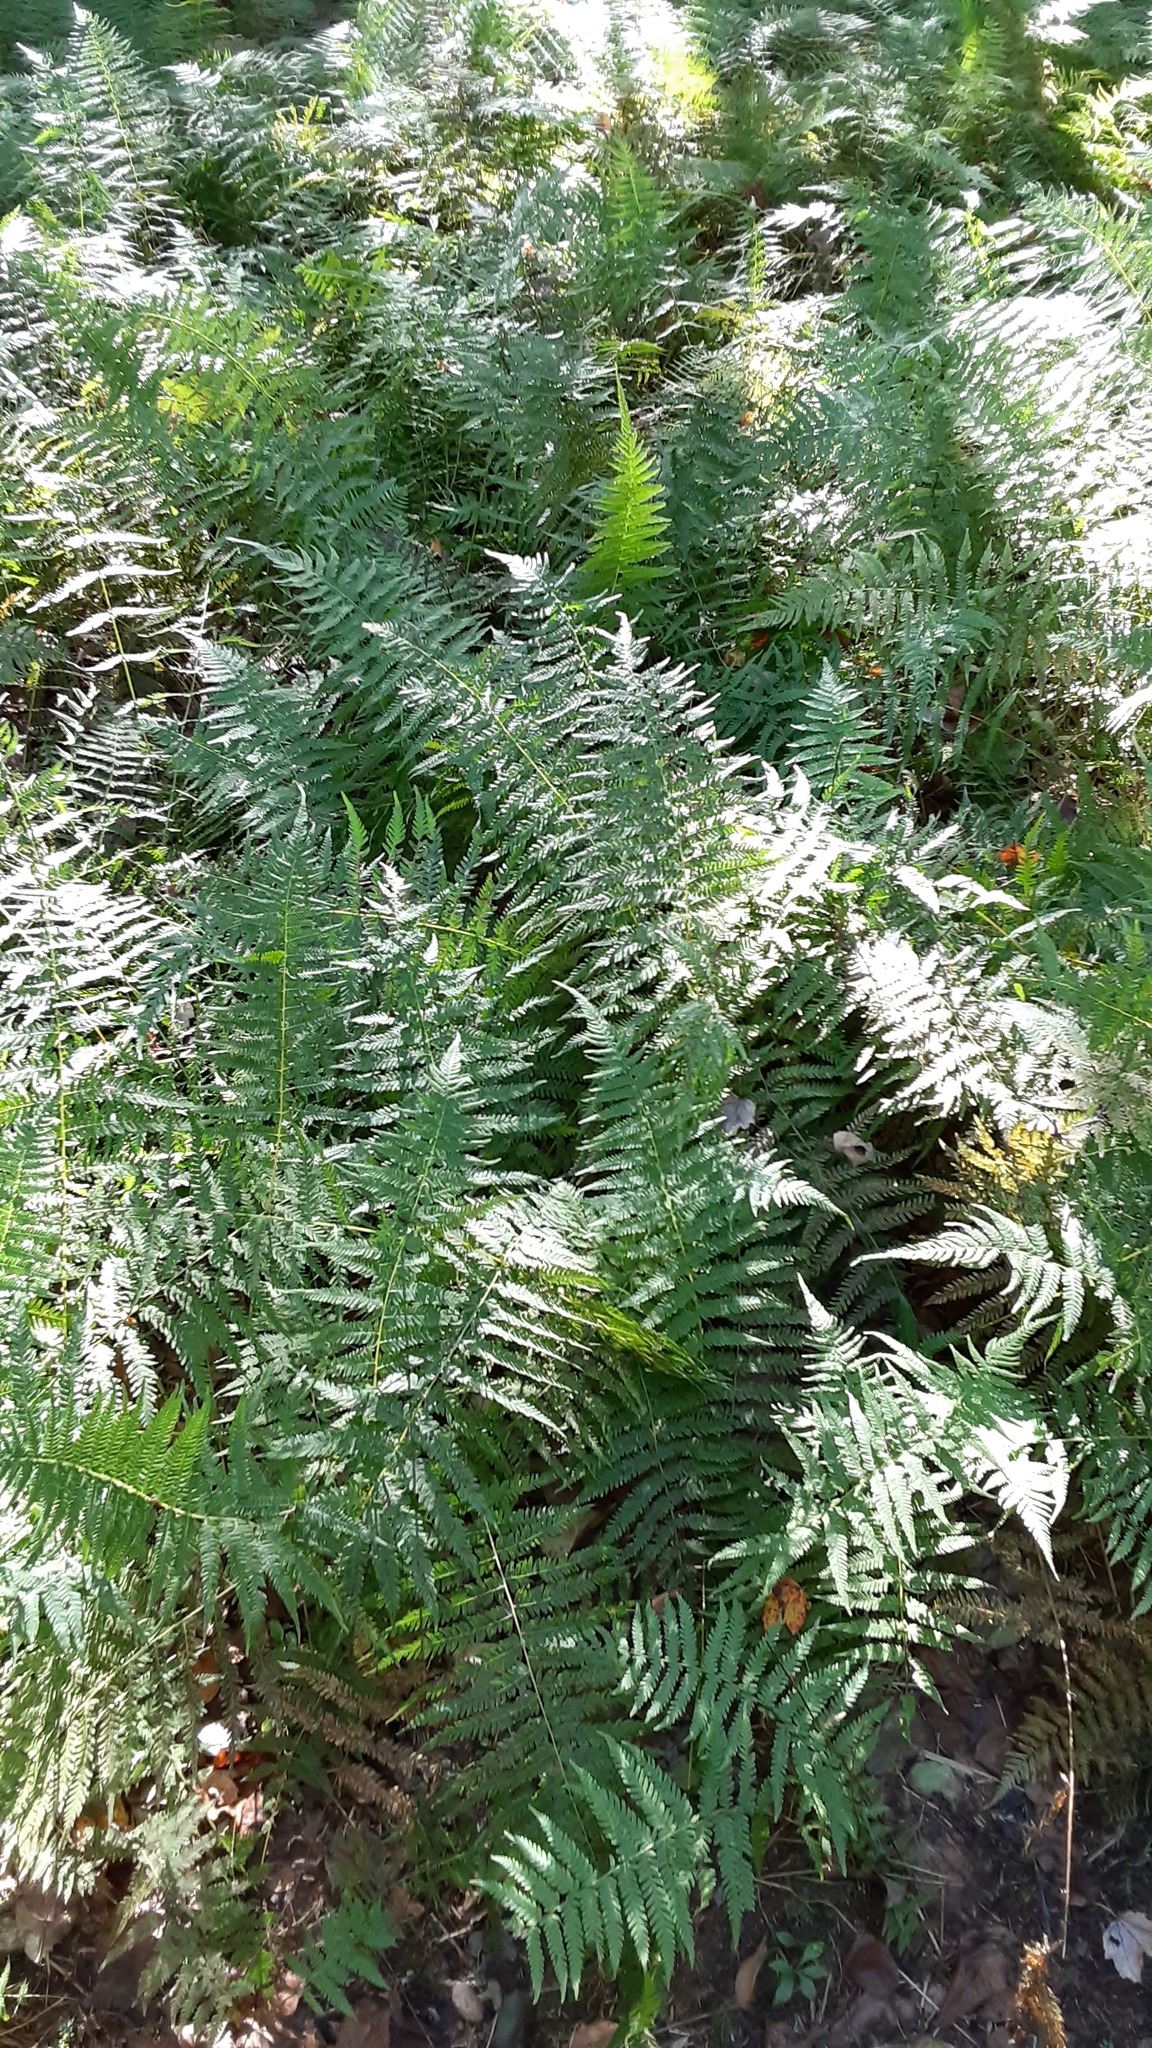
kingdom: Plantae
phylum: Tracheophyta
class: Polypodiopsida
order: Polypodiales
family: Thelypteridaceae
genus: Amauropelta
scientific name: Amauropelta noveboracensis
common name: New york fern
